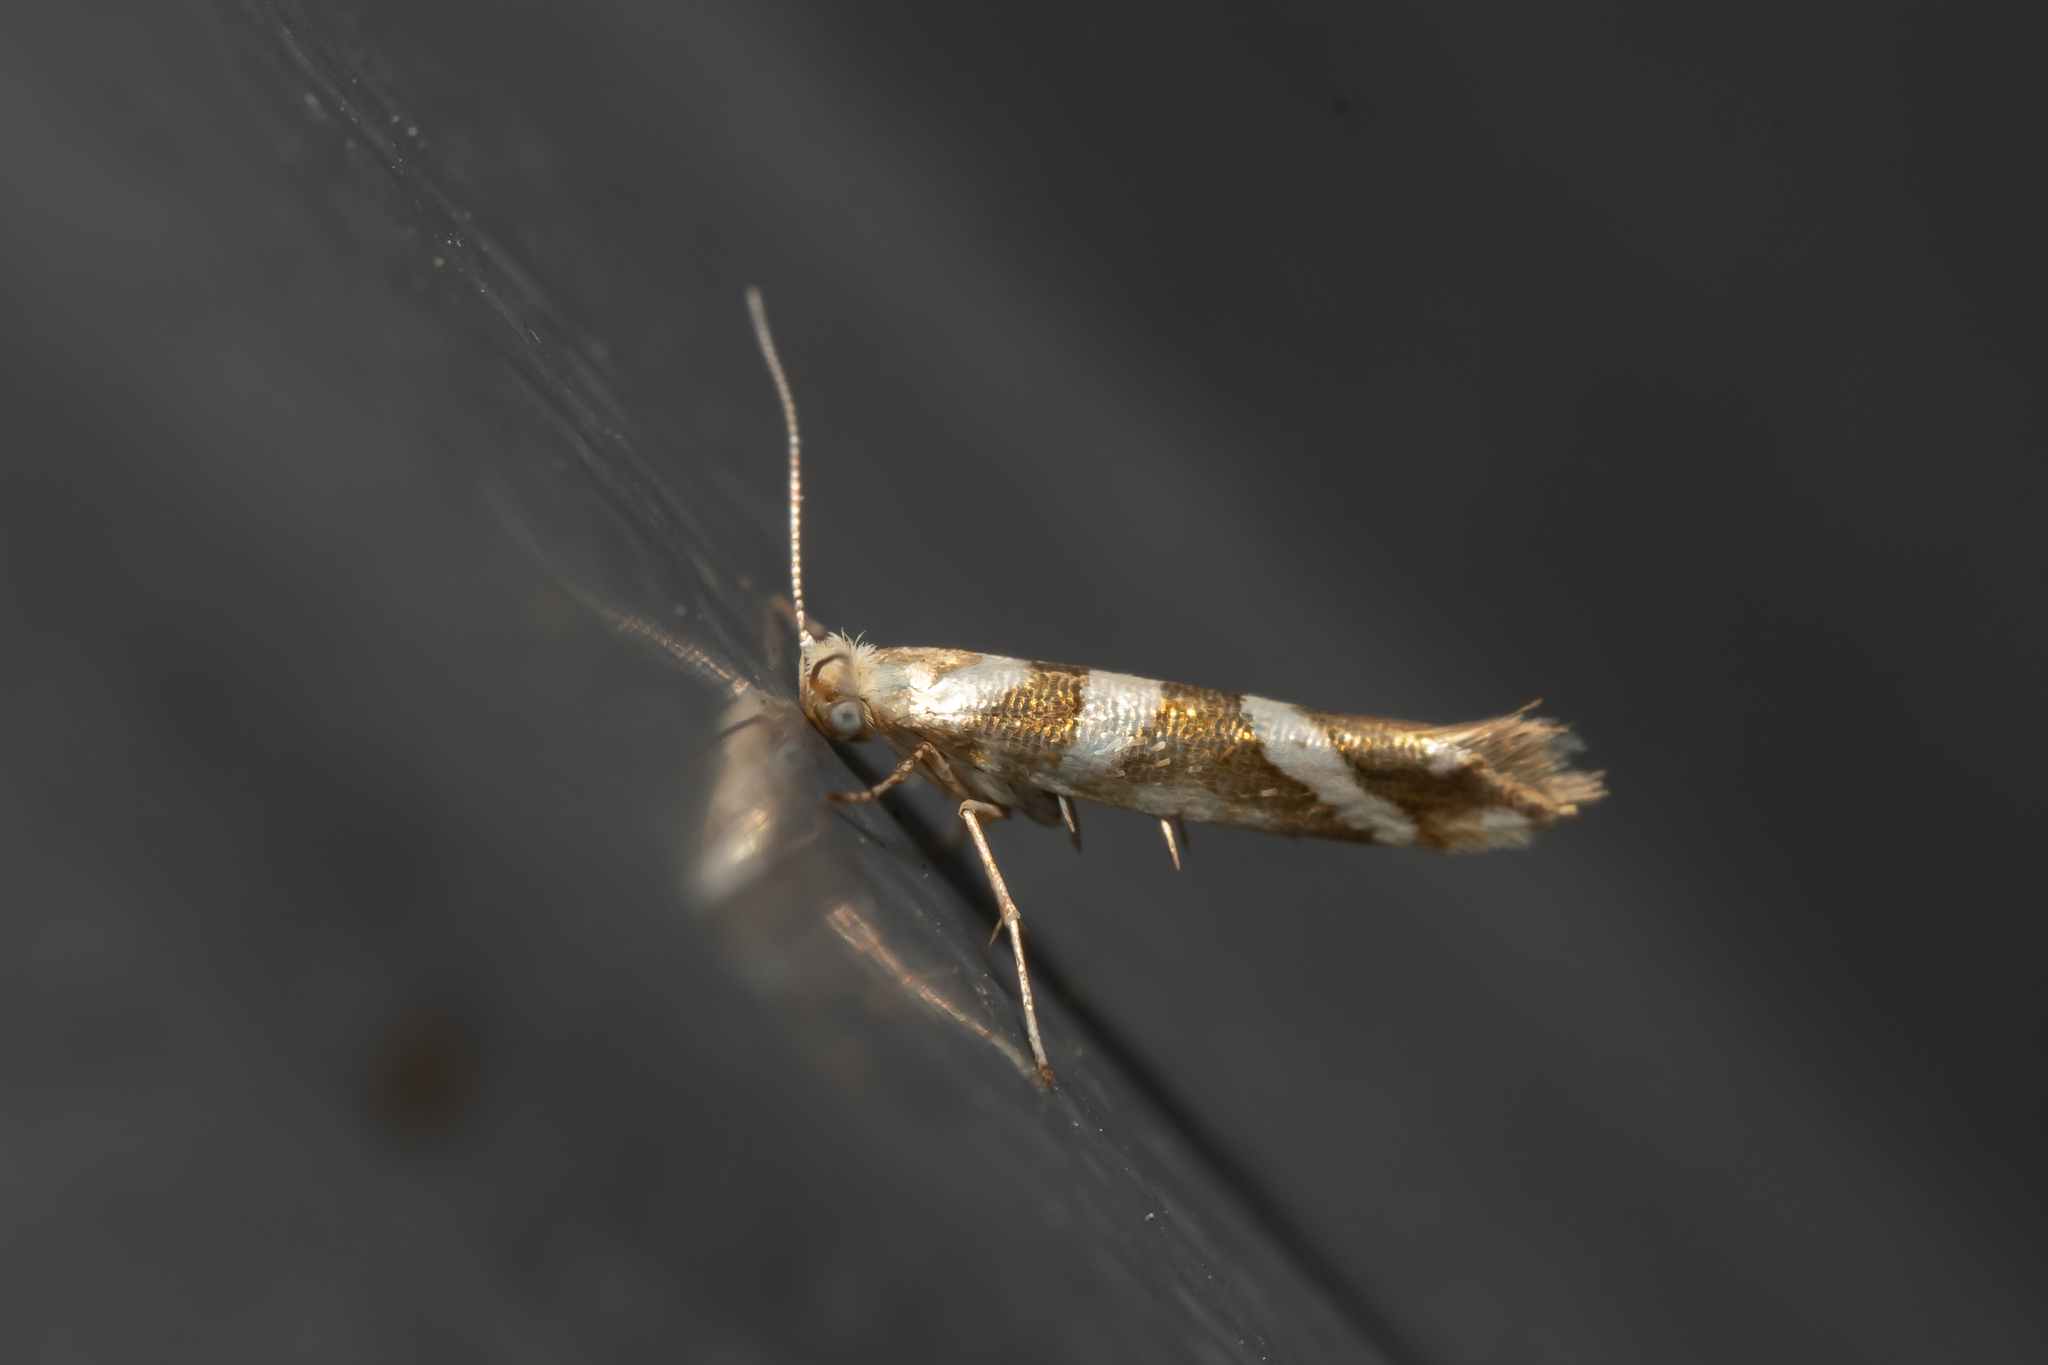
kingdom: Animalia
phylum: Arthropoda
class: Insecta
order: Lepidoptera
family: Argyresthiidae
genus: Argyresthia
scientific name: Argyresthia goedartella
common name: Golden argent
